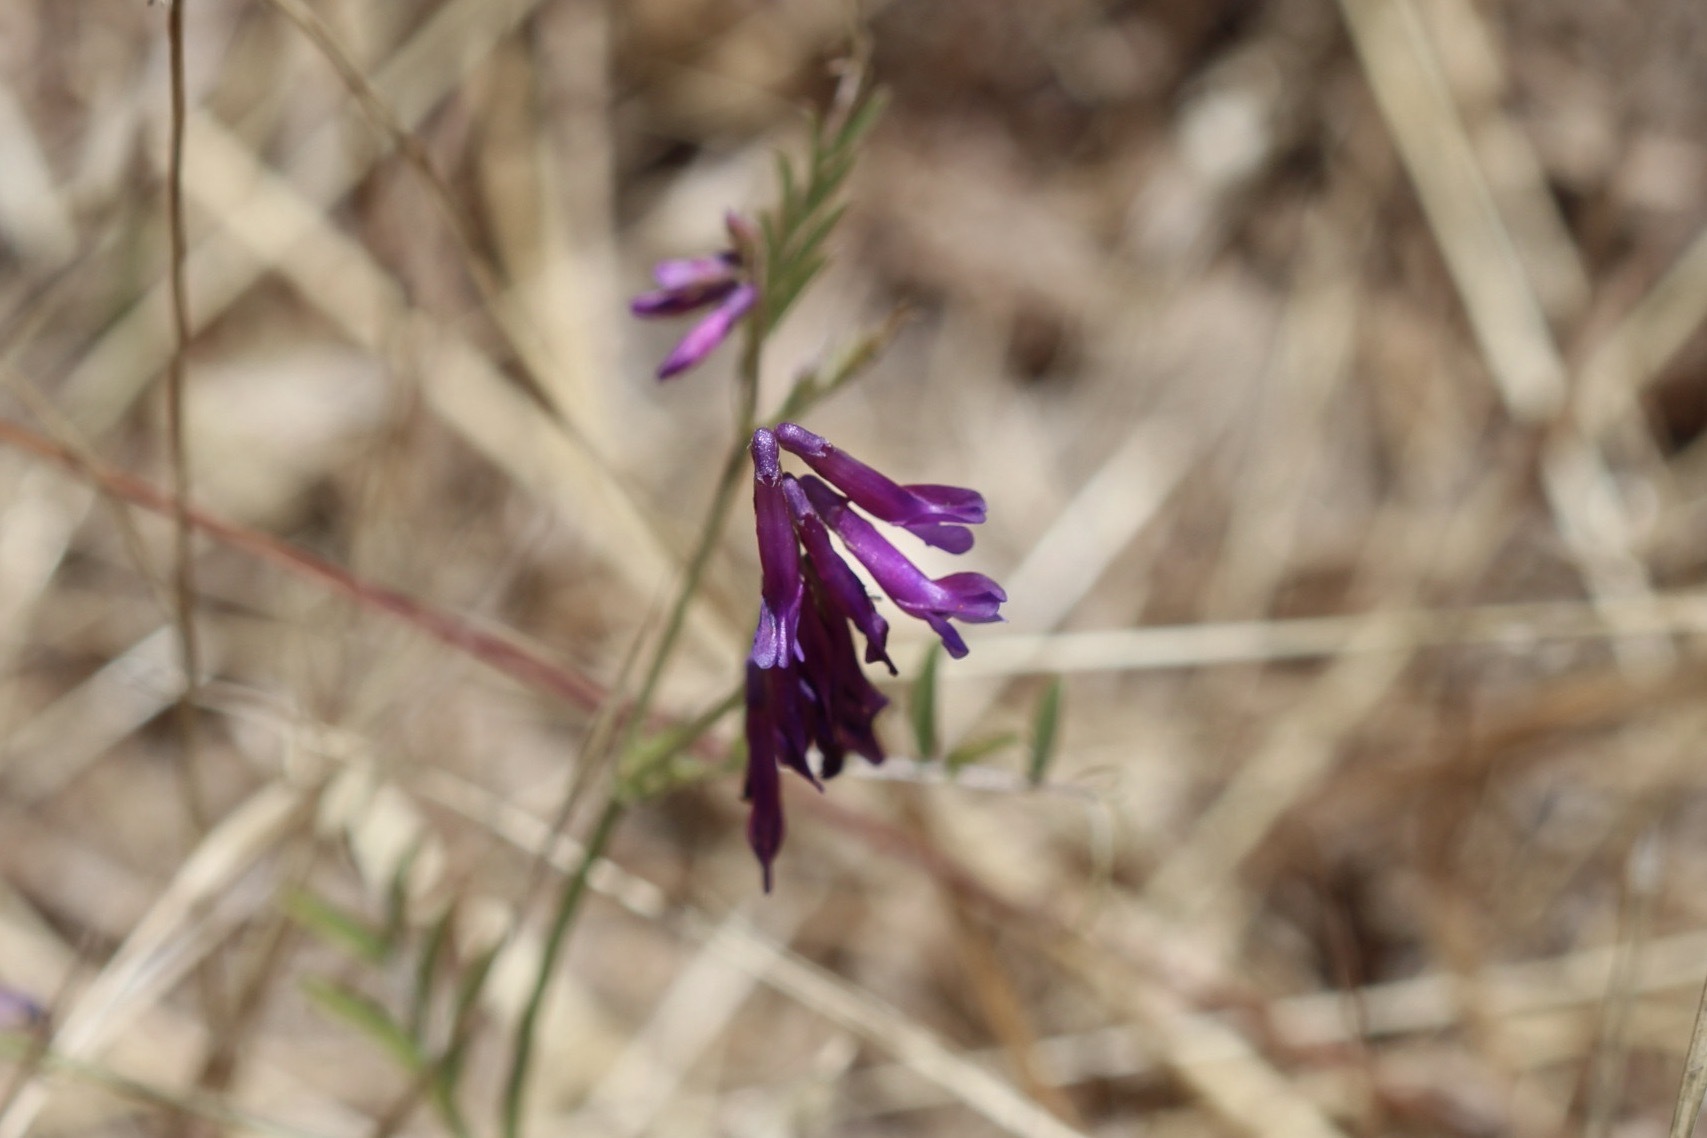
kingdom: Plantae
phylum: Tracheophyta
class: Magnoliopsida
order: Fabales
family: Fabaceae
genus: Vicia
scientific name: Vicia villosa
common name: Fodder vetch
